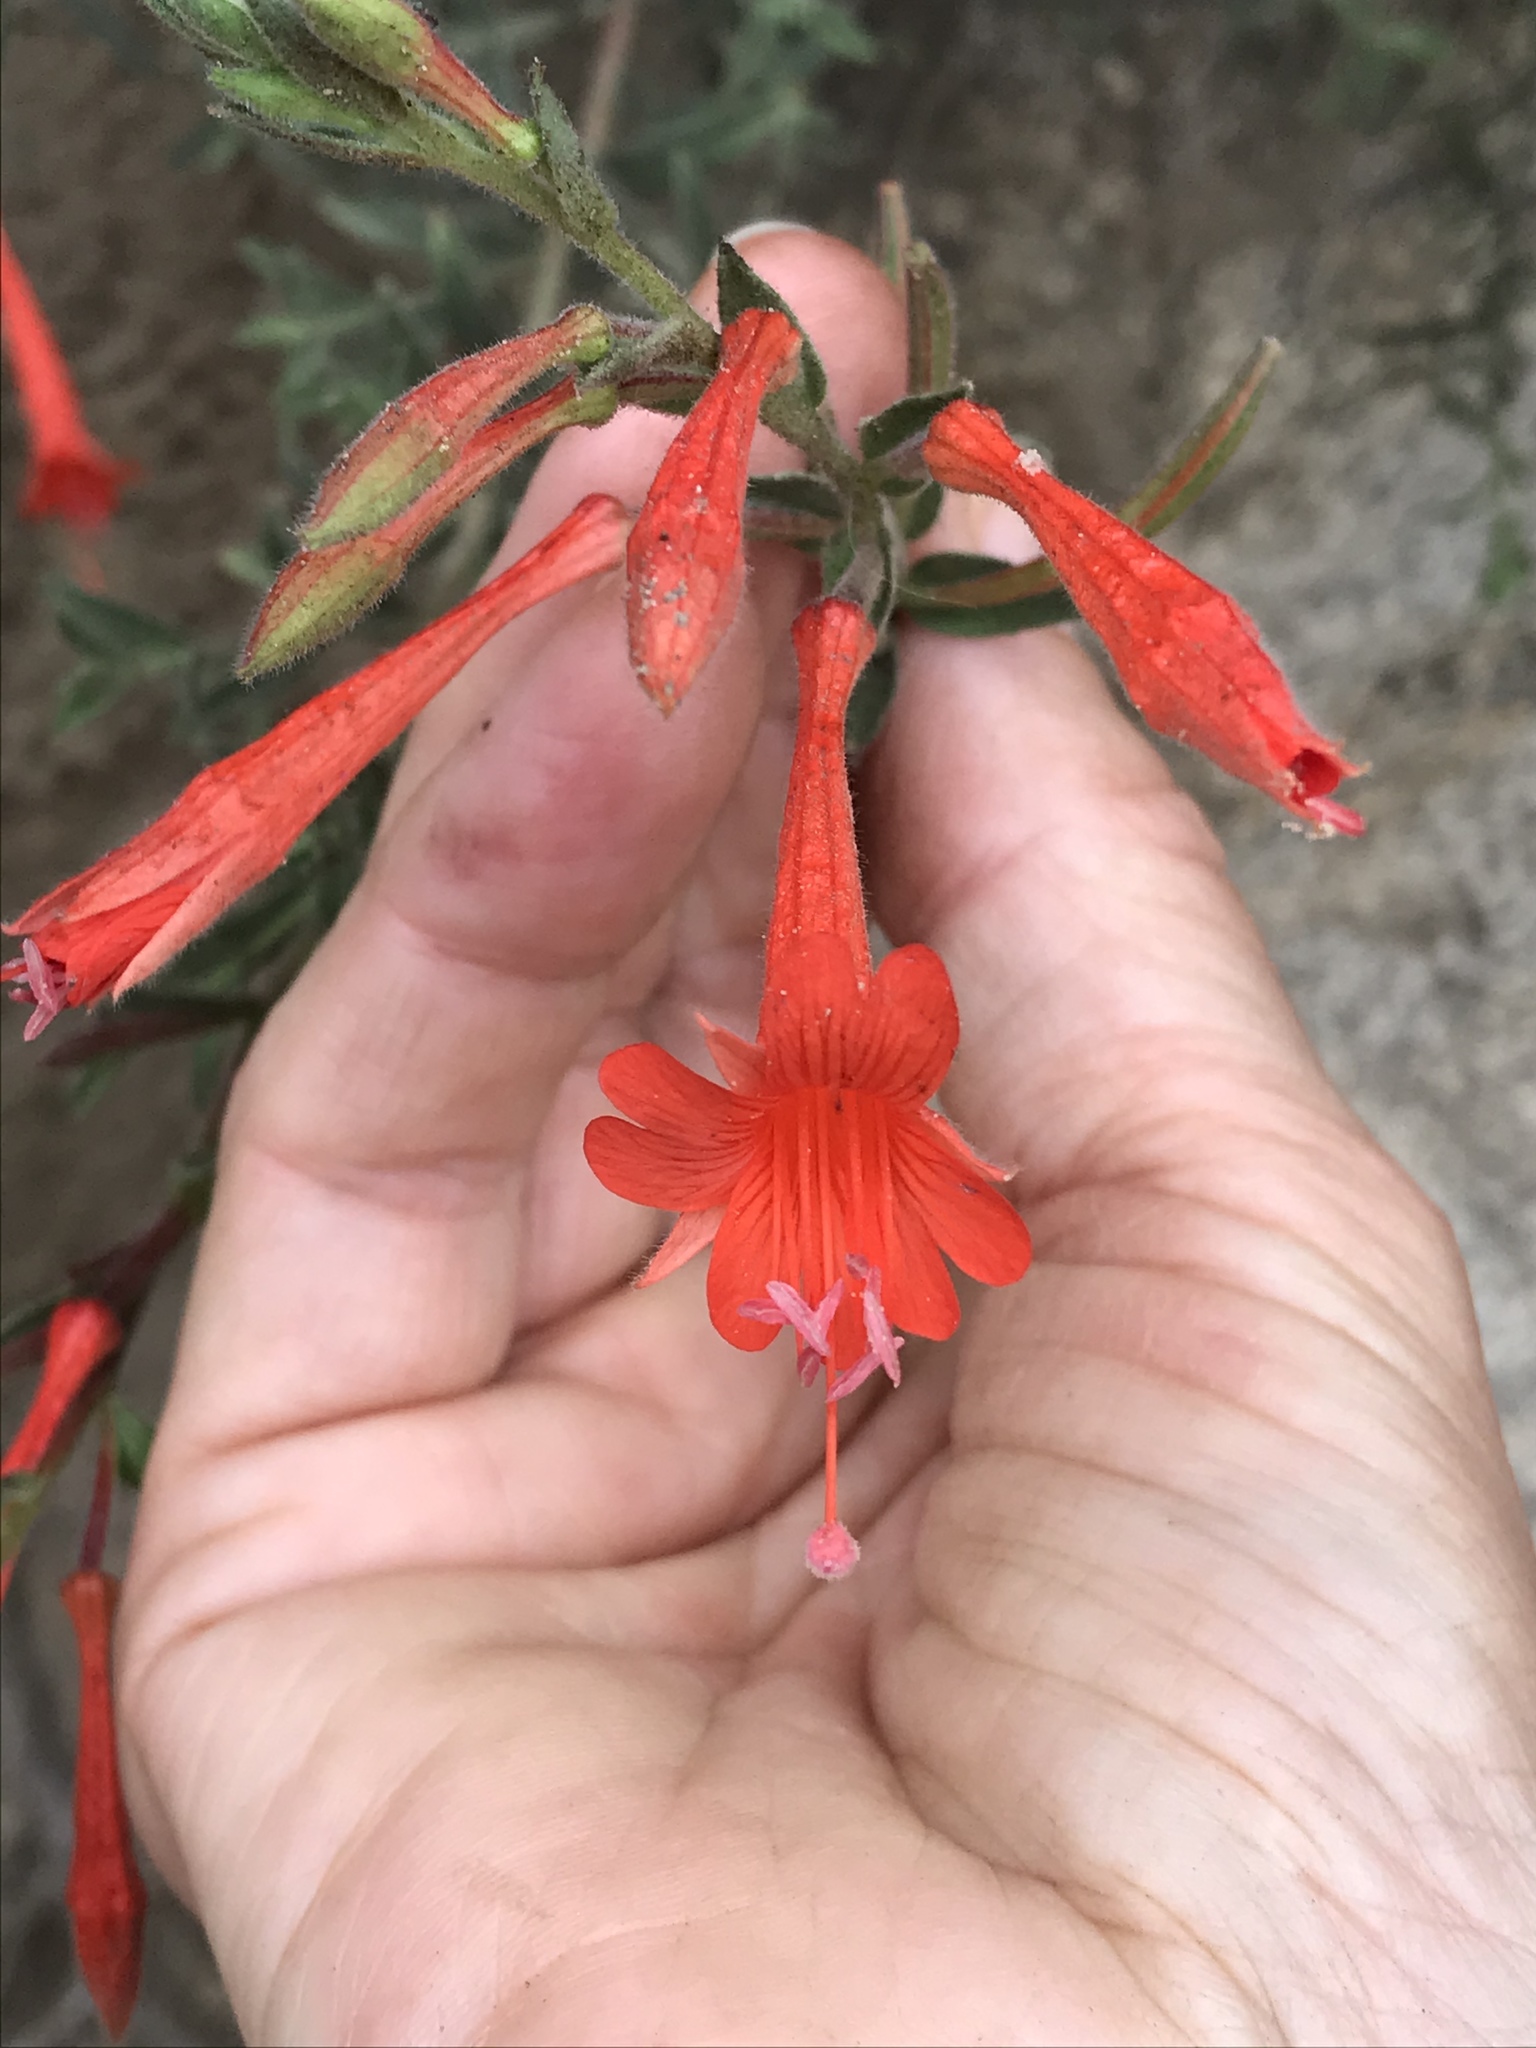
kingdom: Plantae
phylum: Tracheophyta
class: Magnoliopsida
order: Myrtales
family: Onagraceae
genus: Epilobium
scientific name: Epilobium canum
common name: California-fuchsia
